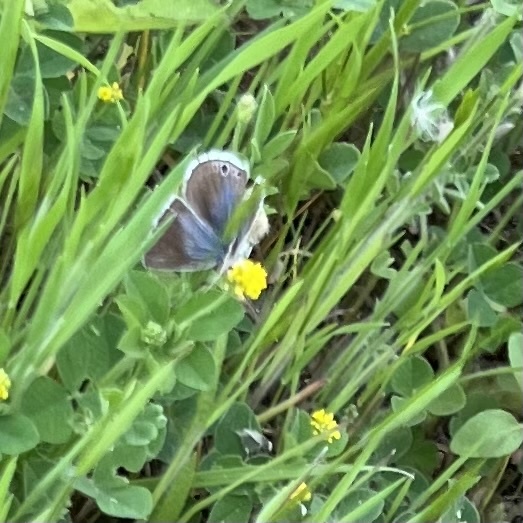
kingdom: Animalia
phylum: Arthropoda
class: Insecta
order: Lepidoptera
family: Lycaenidae
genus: Echinargus
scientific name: Echinargus isola
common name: Reakirt's blue
